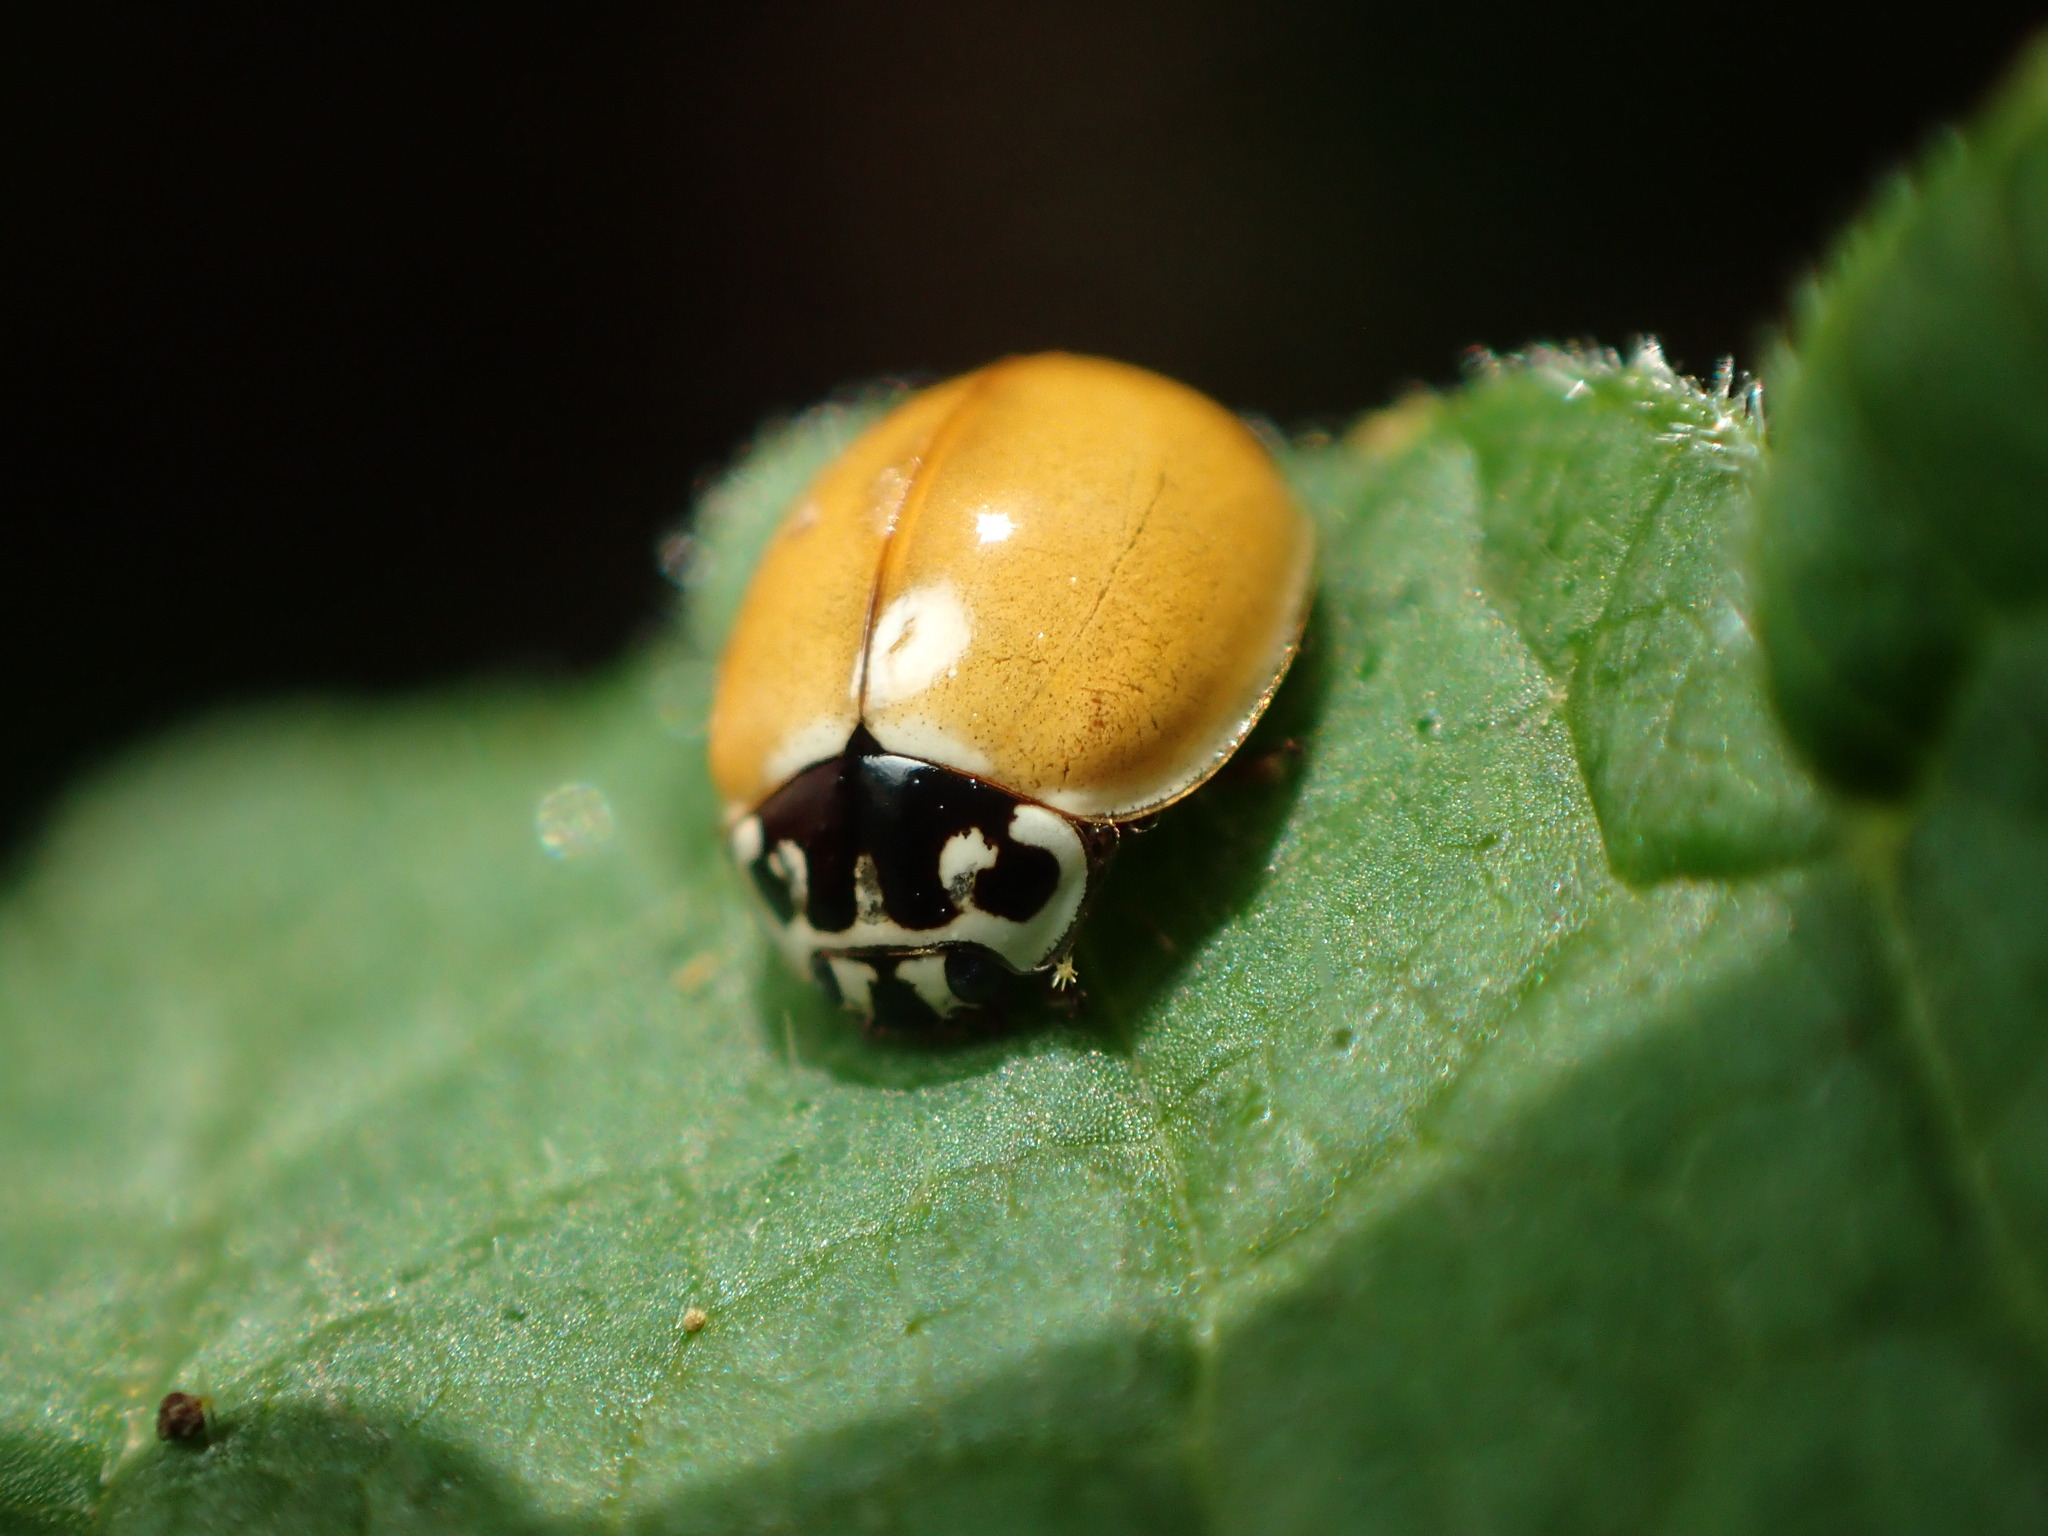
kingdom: Animalia
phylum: Arthropoda
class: Insecta
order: Coleoptera
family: Coccinellidae
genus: Cycloneda
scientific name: Cycloneda polita
